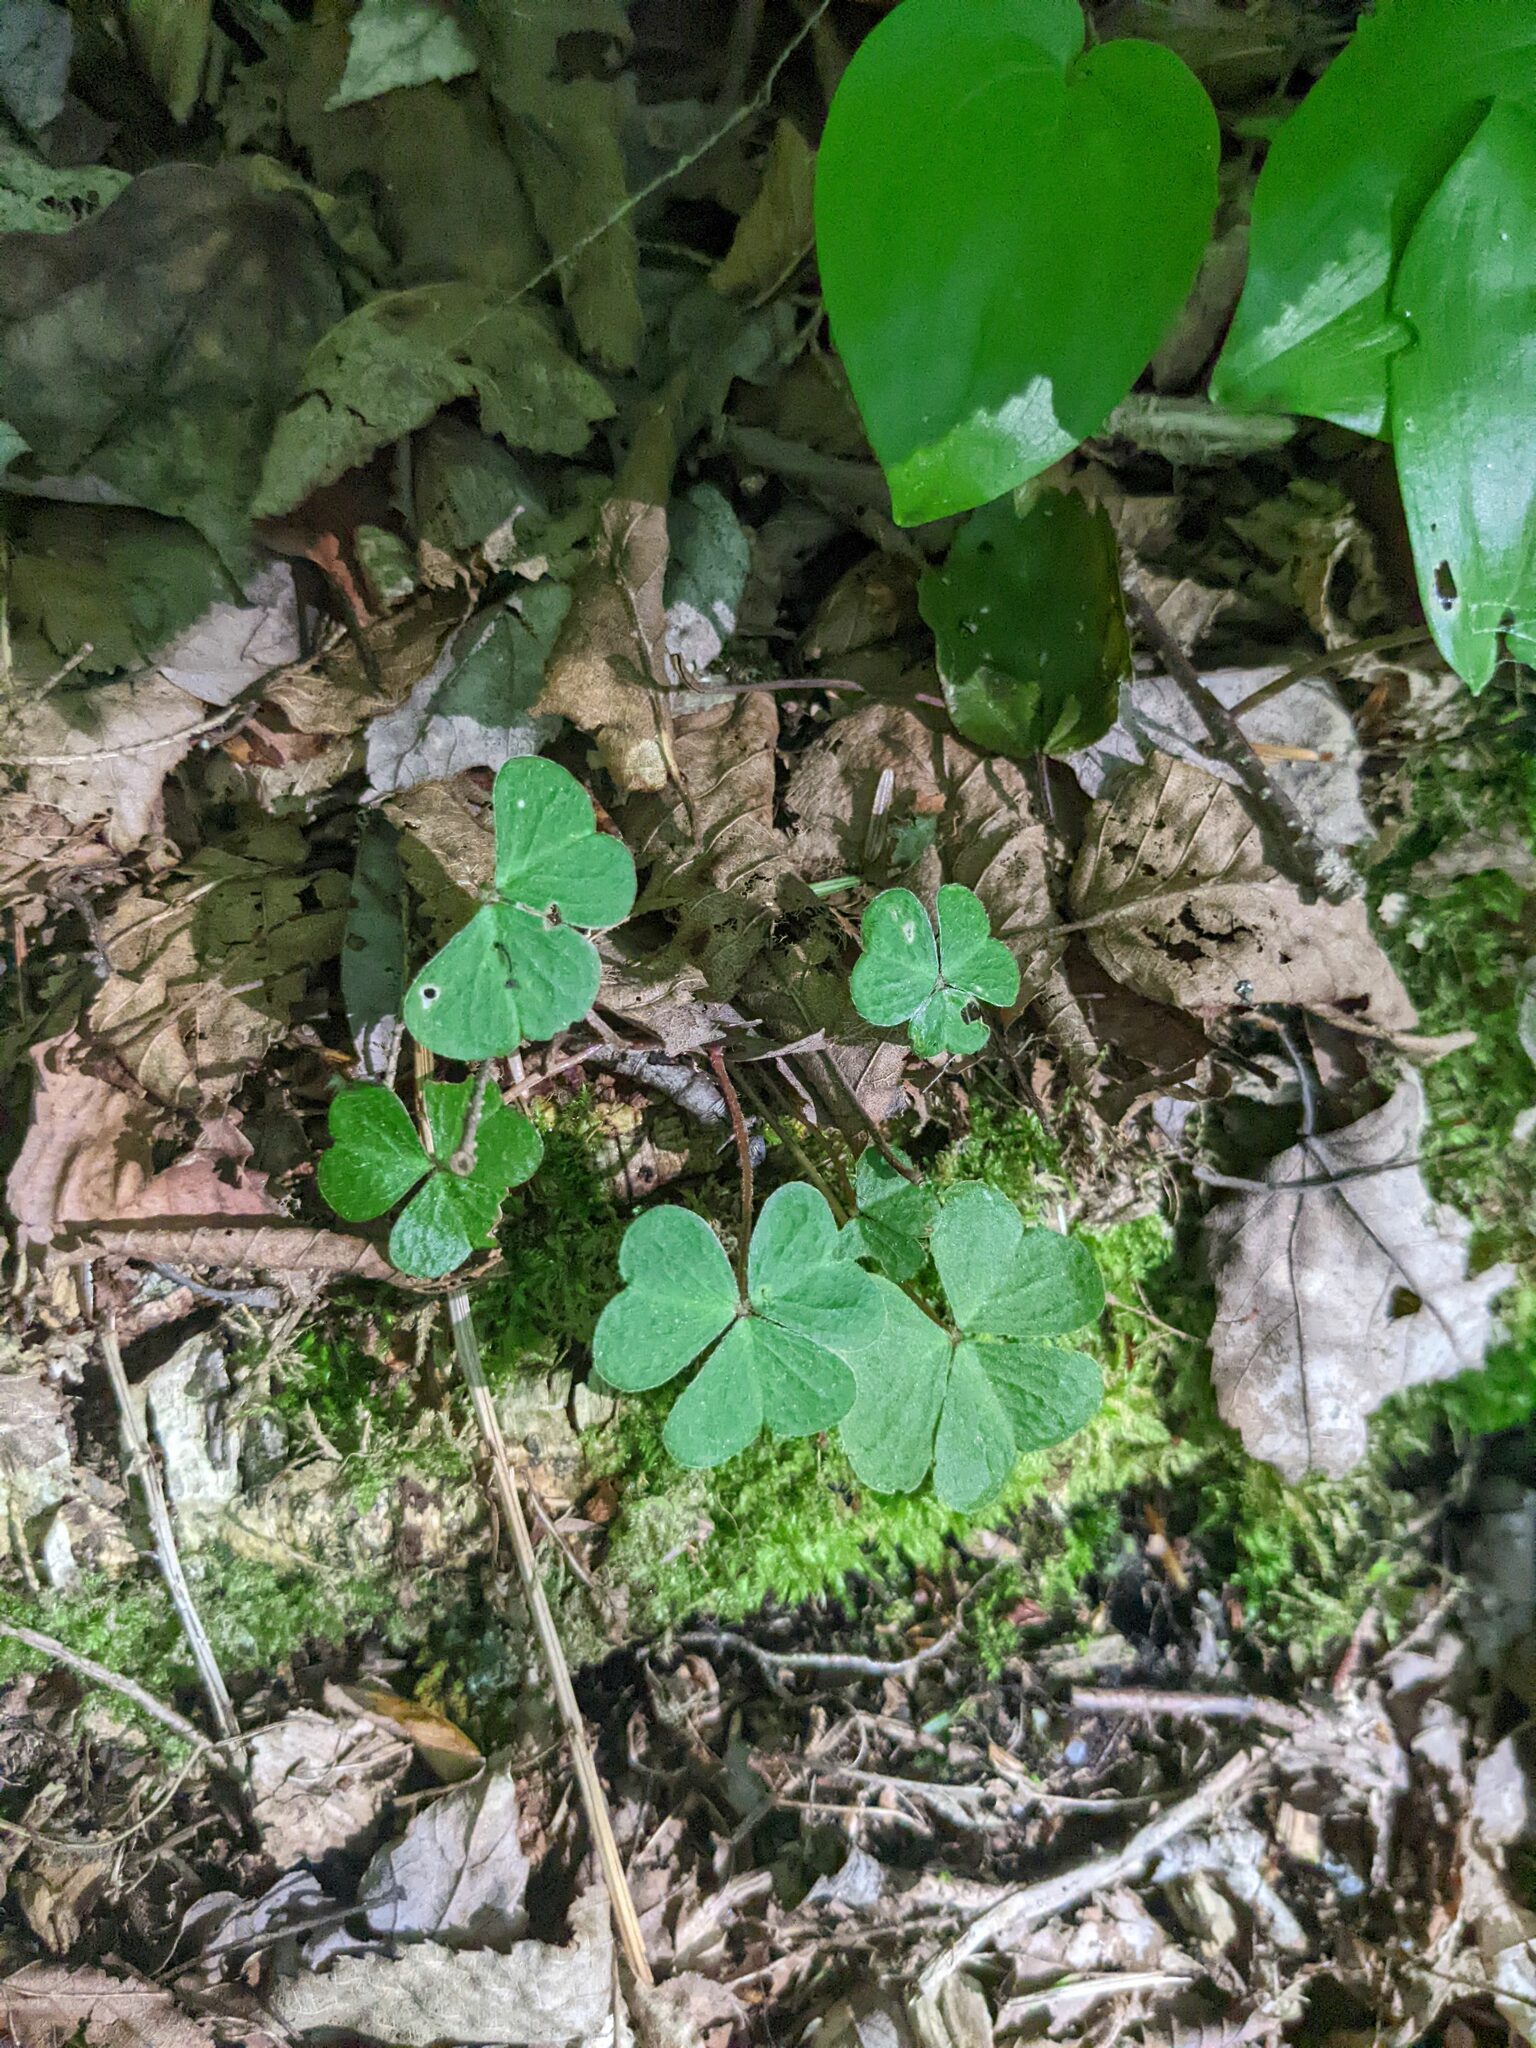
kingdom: Plantae
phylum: Tracheophyta
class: Magnoliopsida
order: Oxalidales
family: Oxalidaceae
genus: Oxalis
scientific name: Oxalis montana
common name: American wood-sorrel
